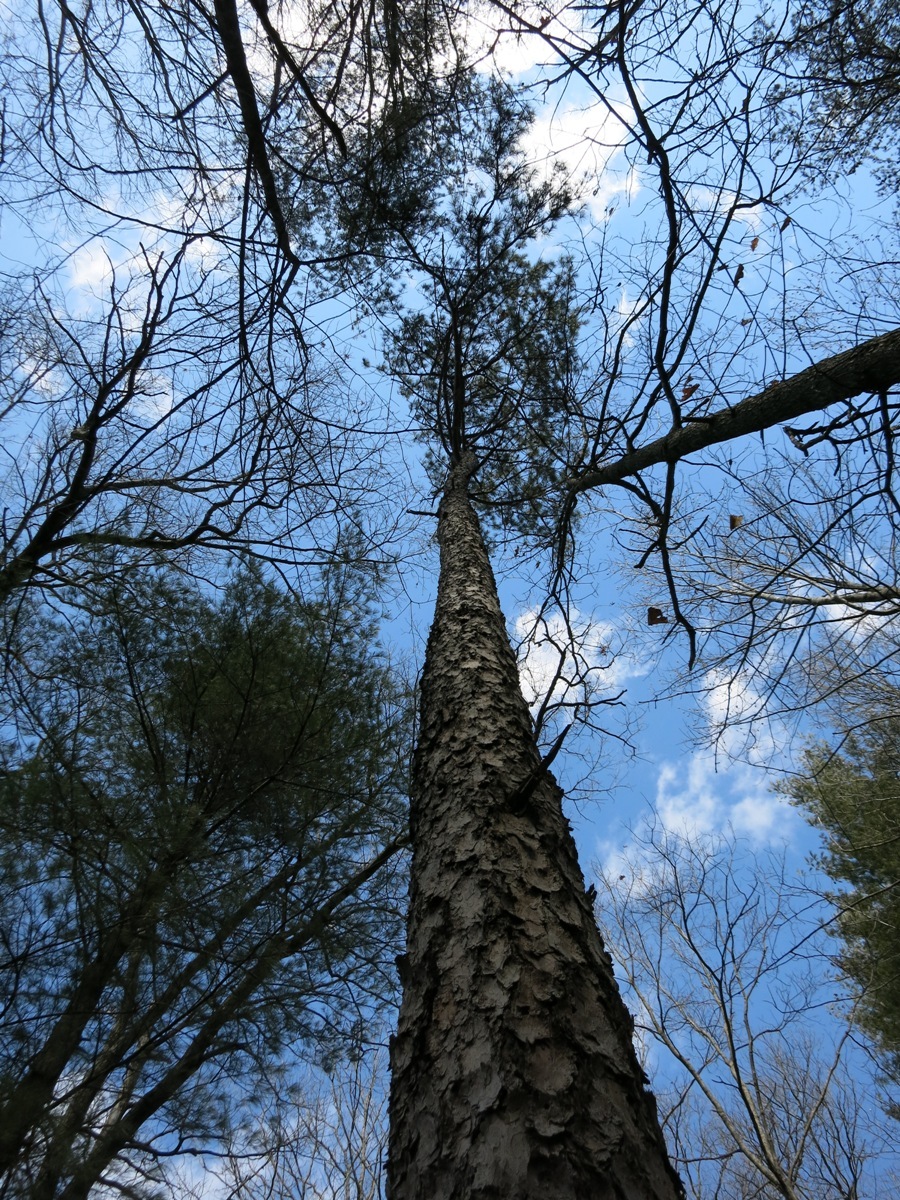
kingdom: Plantae
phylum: Tracheophyta
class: Pinopsida
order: Pinales
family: Pinaceae
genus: Pinus
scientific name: Pinus echinata
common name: Shortleaf pine
